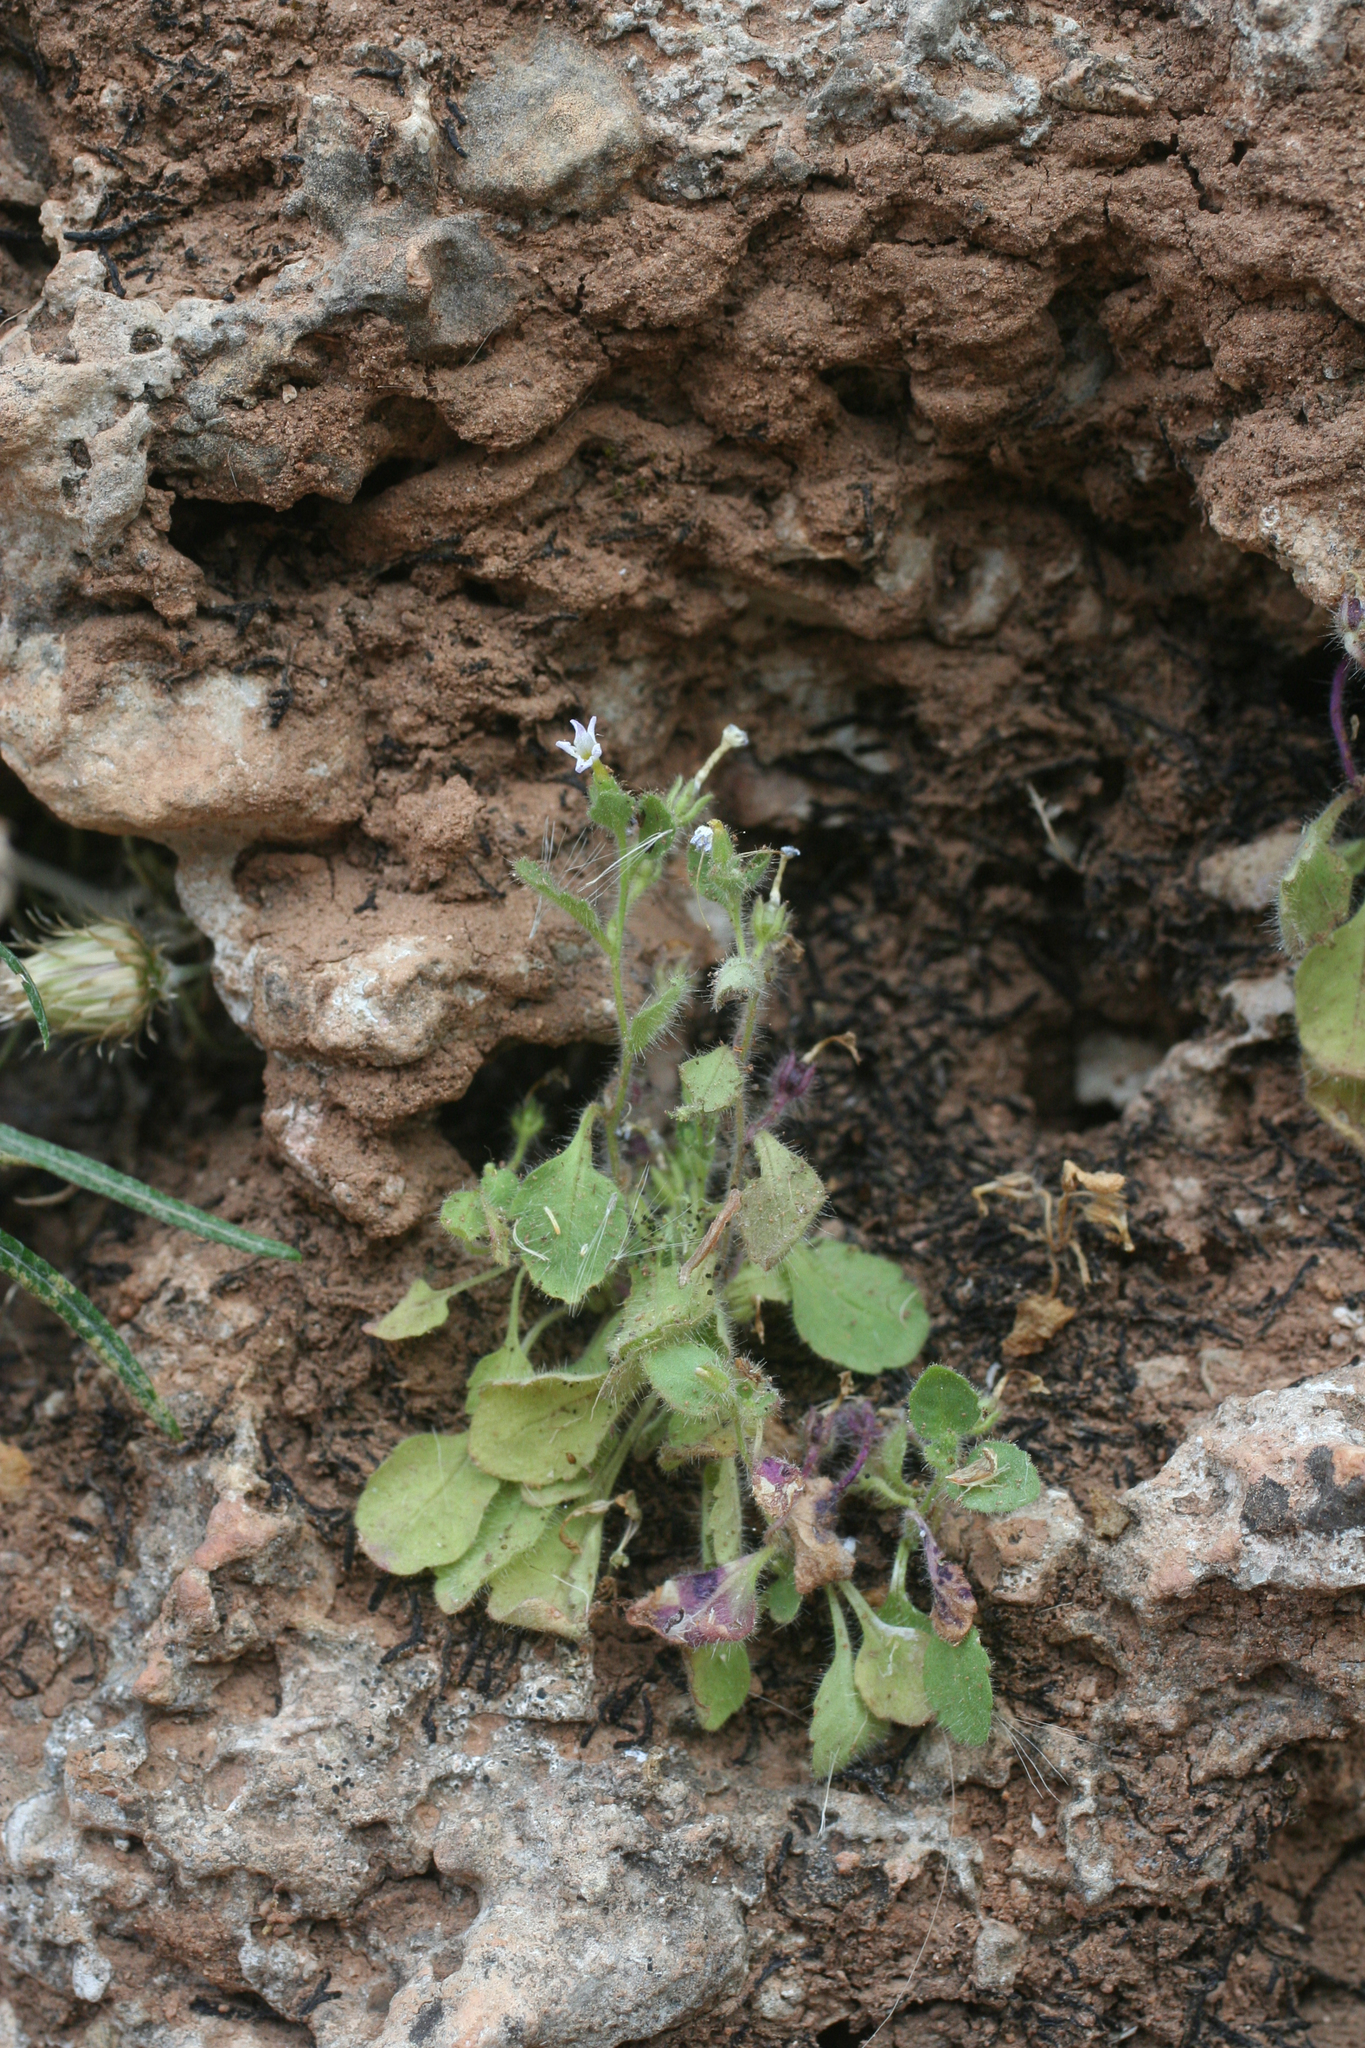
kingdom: Plantae
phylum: Tracheophyta
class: Magnoliopsida
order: Lamiales
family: Plantaginaceae
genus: Erinus
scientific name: Erinus thiabaudii
